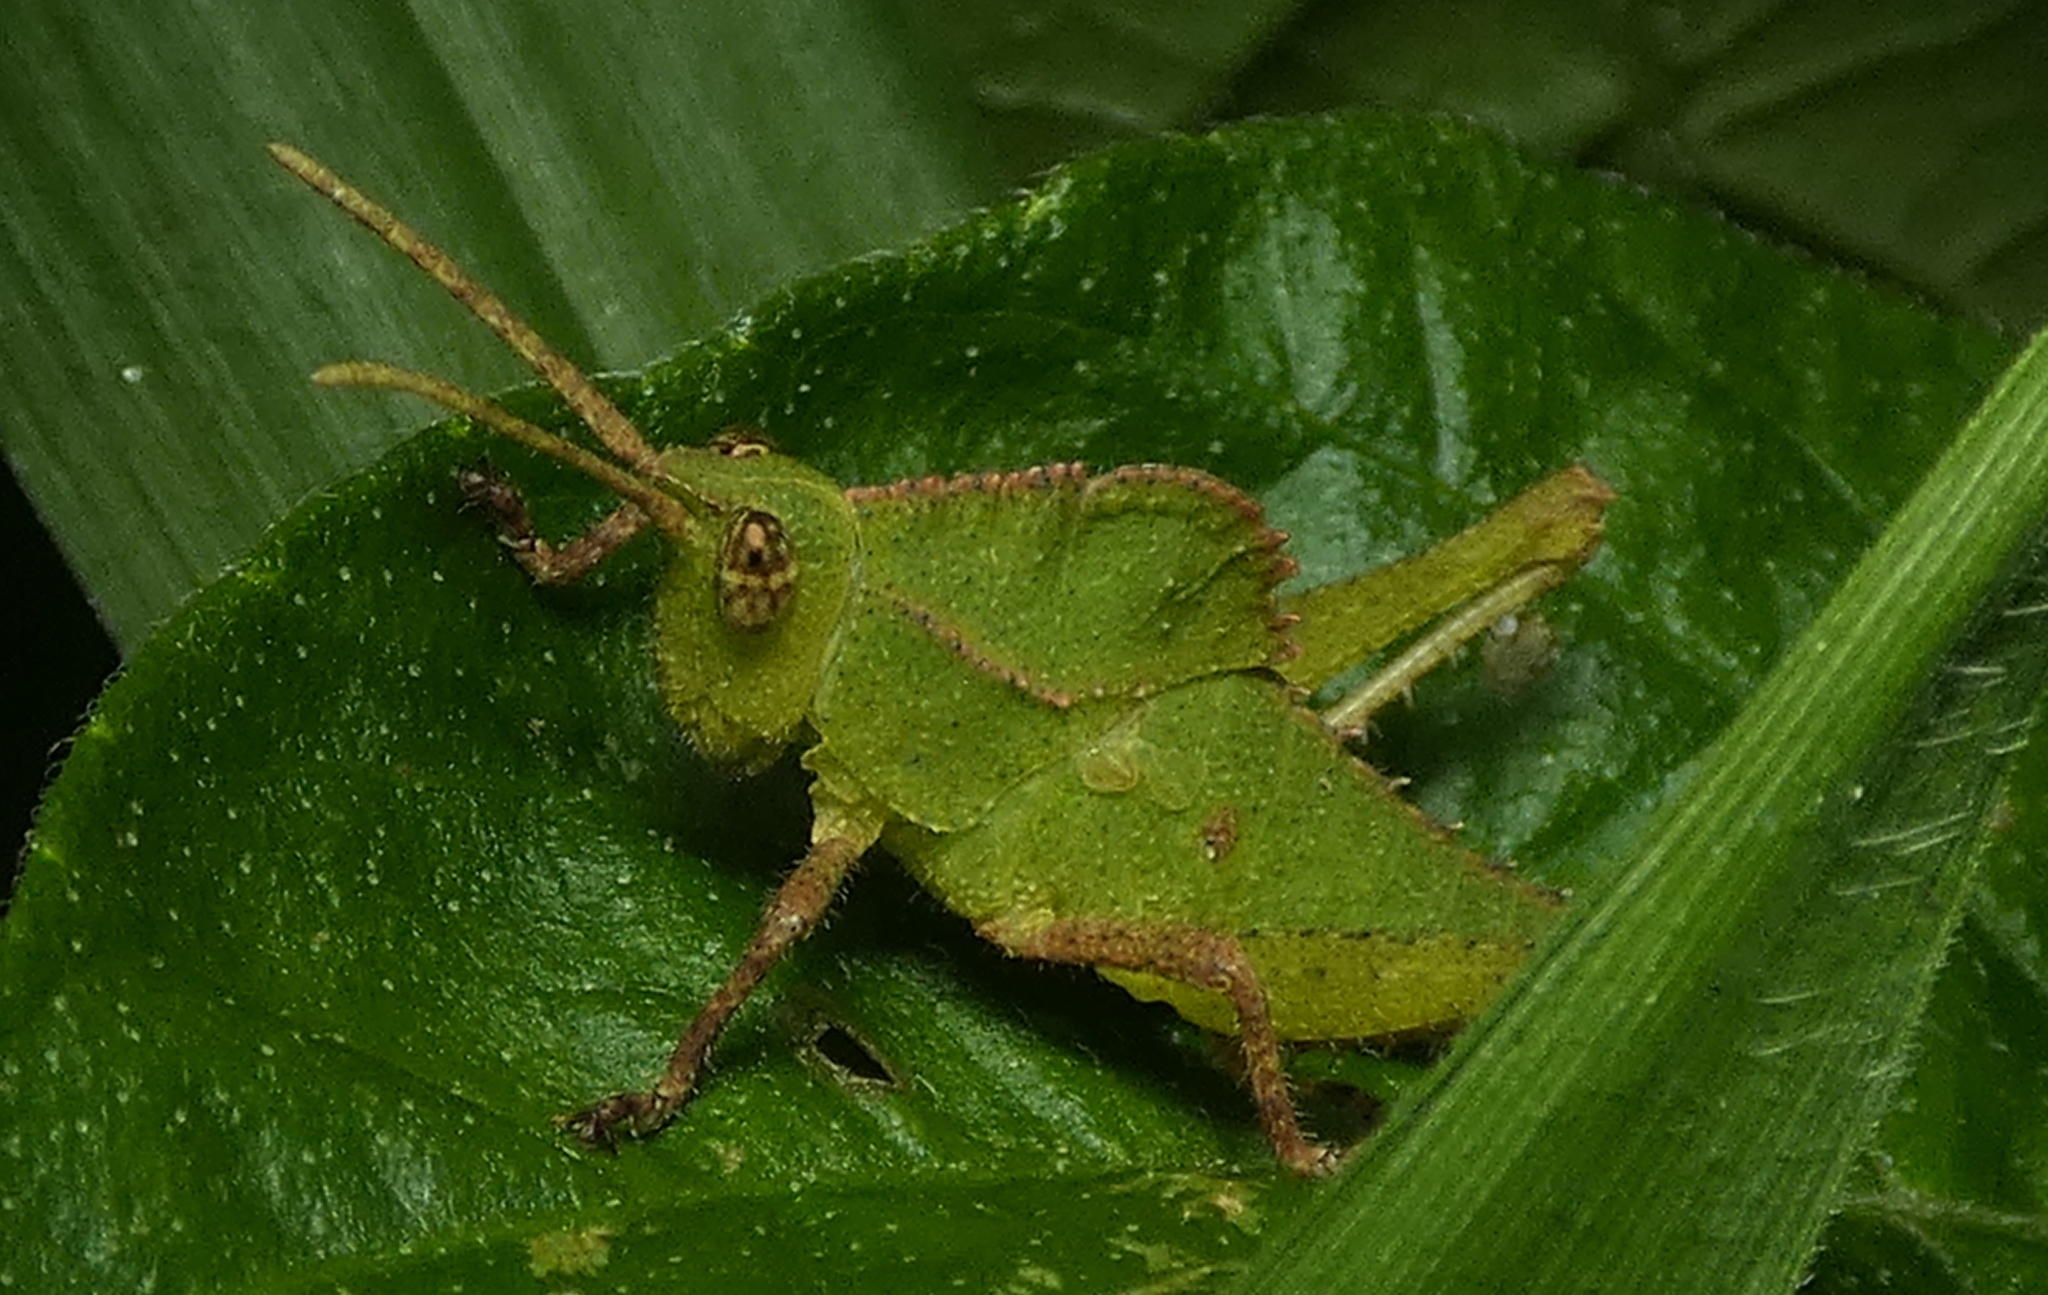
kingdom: Animalia
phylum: Arthropoda
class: Insecta
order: Orthoptera
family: Romaleidae
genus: Helionotus
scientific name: Helionotus mirabilis
